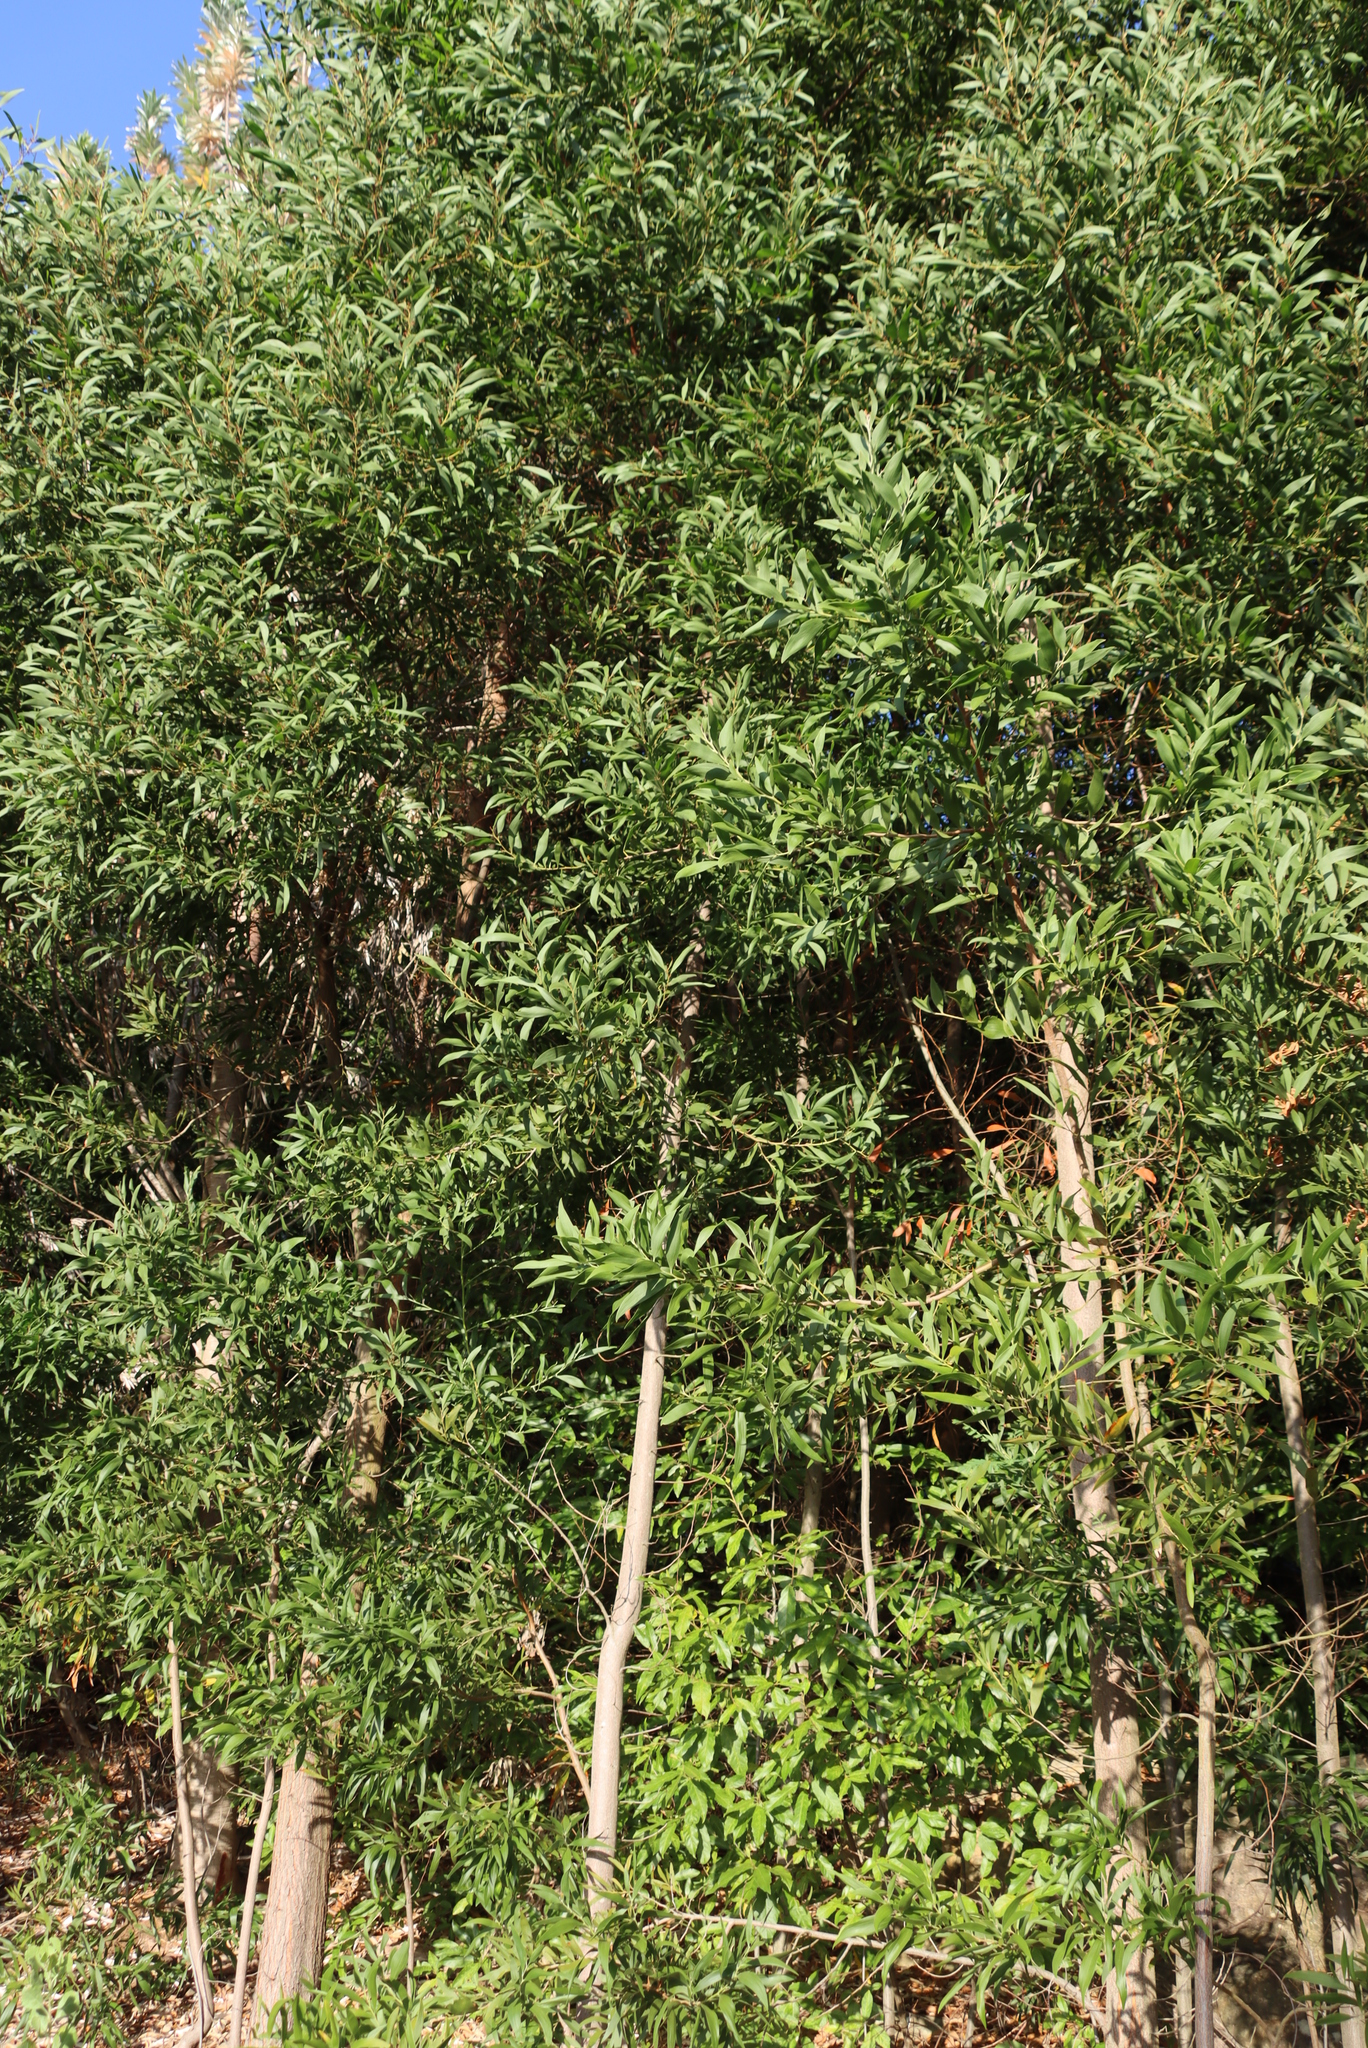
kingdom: Plantae
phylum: Tracheophyta
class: Magnoliopsida
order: Fabales
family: Fabaceae
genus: Acacia
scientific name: Acacia melanoxylon
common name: Blackwood
